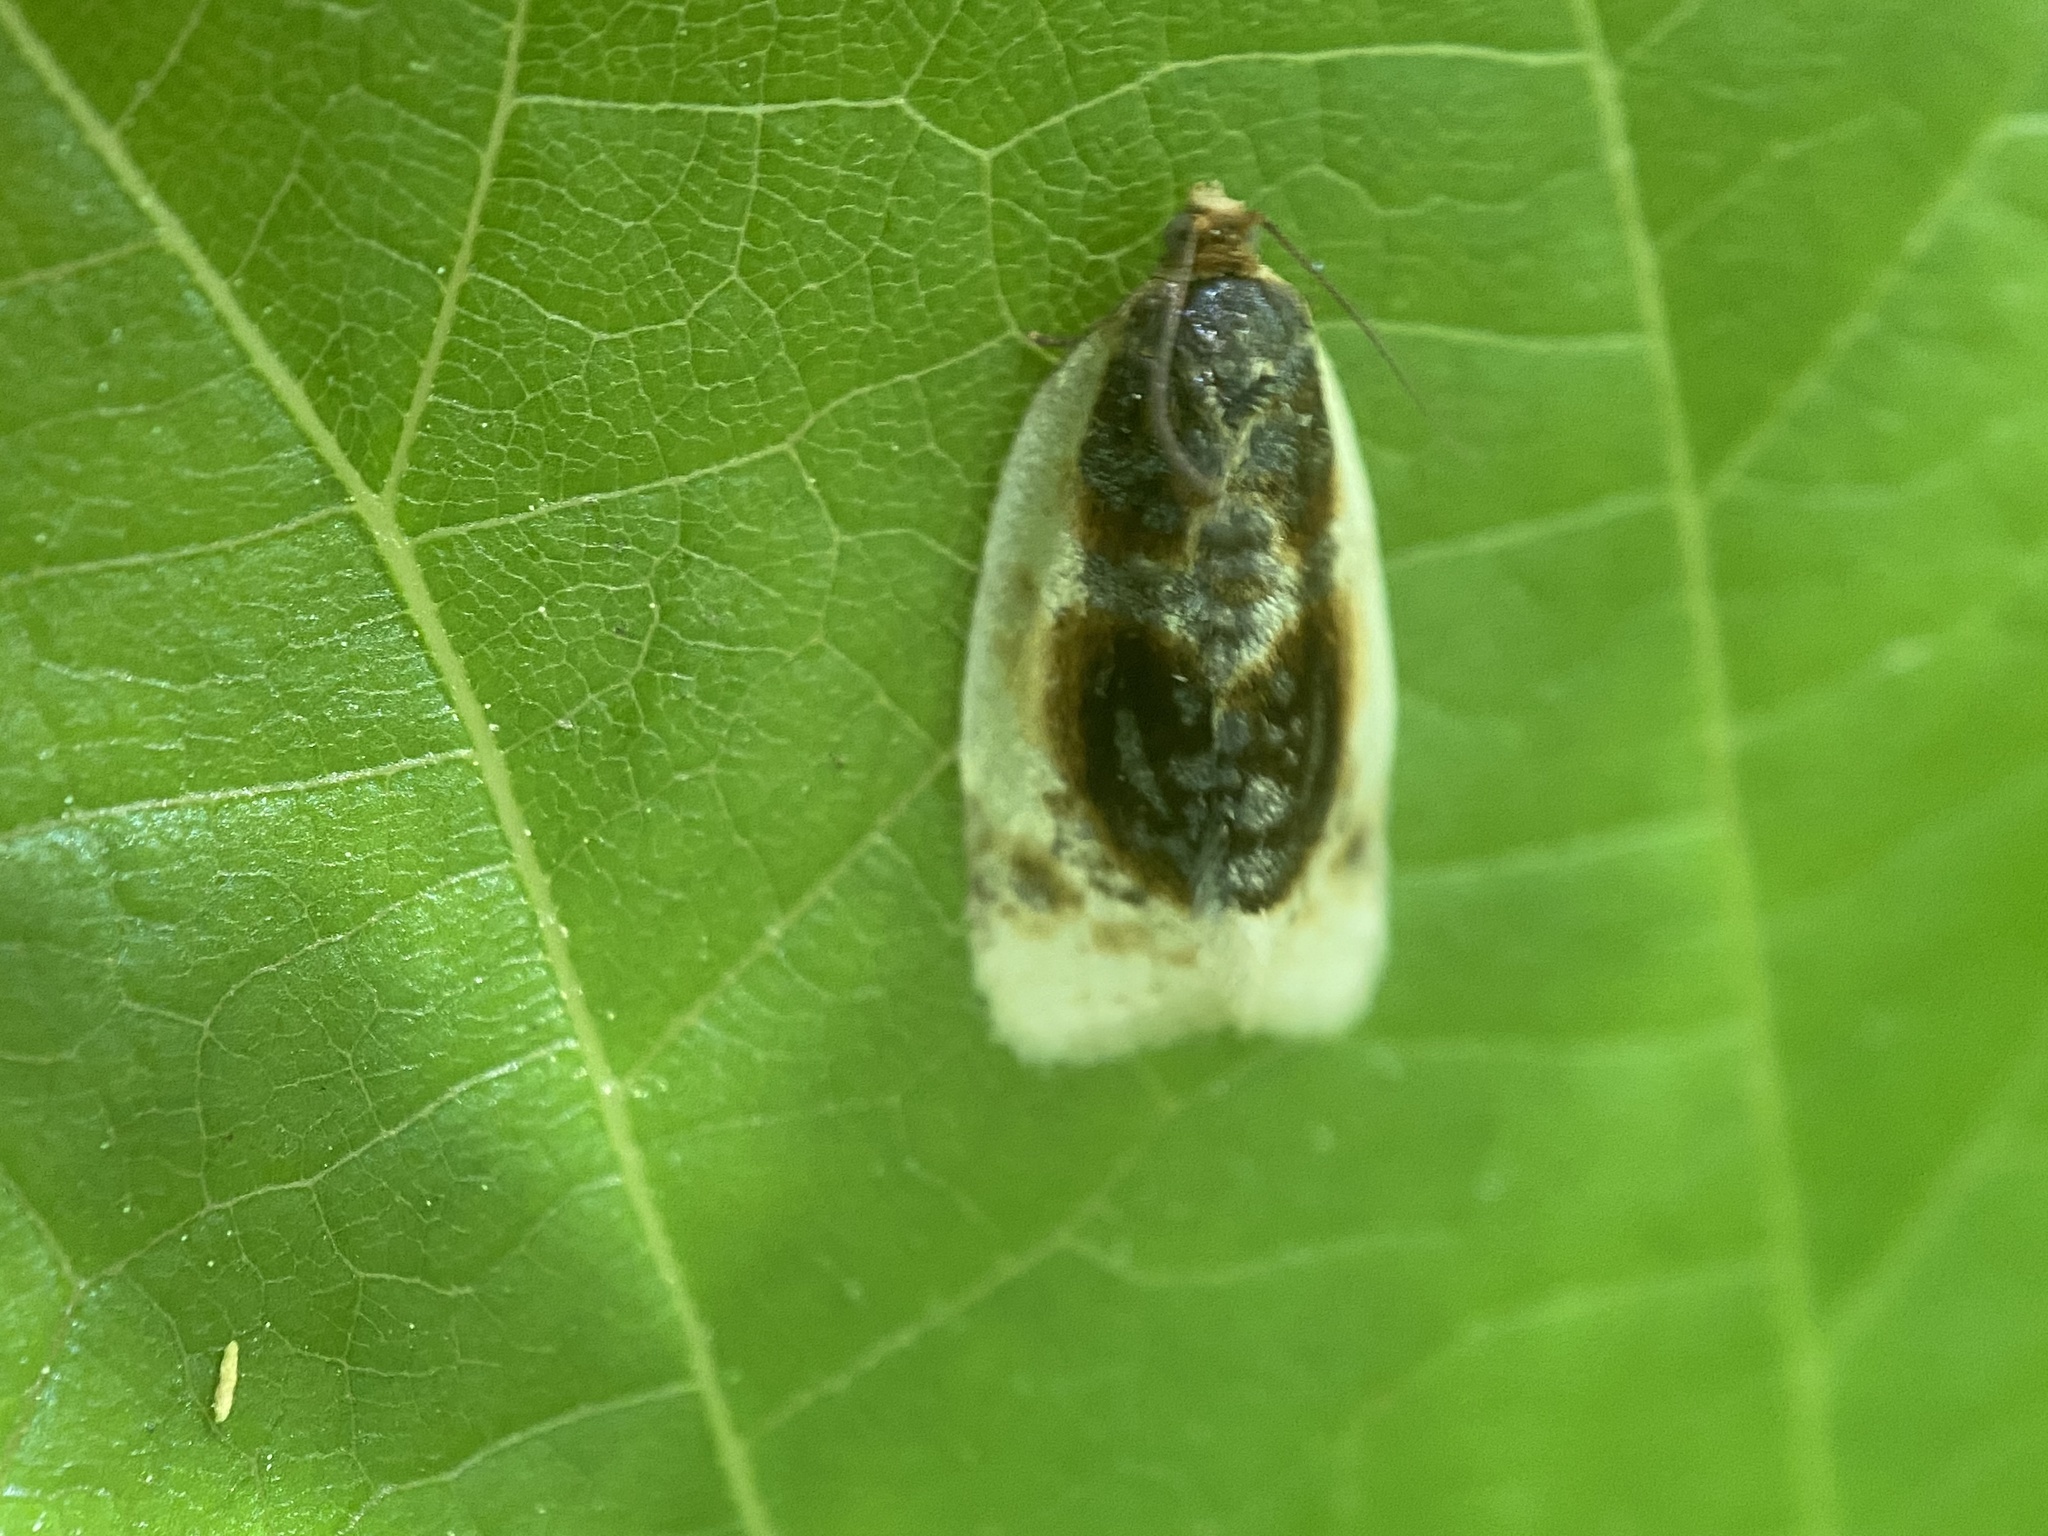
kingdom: Animalia
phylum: Arthropoda
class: Insecta
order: Lepidoptera
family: Tortricidae
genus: Clepsis
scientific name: Clepsis melaleucanus
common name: American apple tortrix
